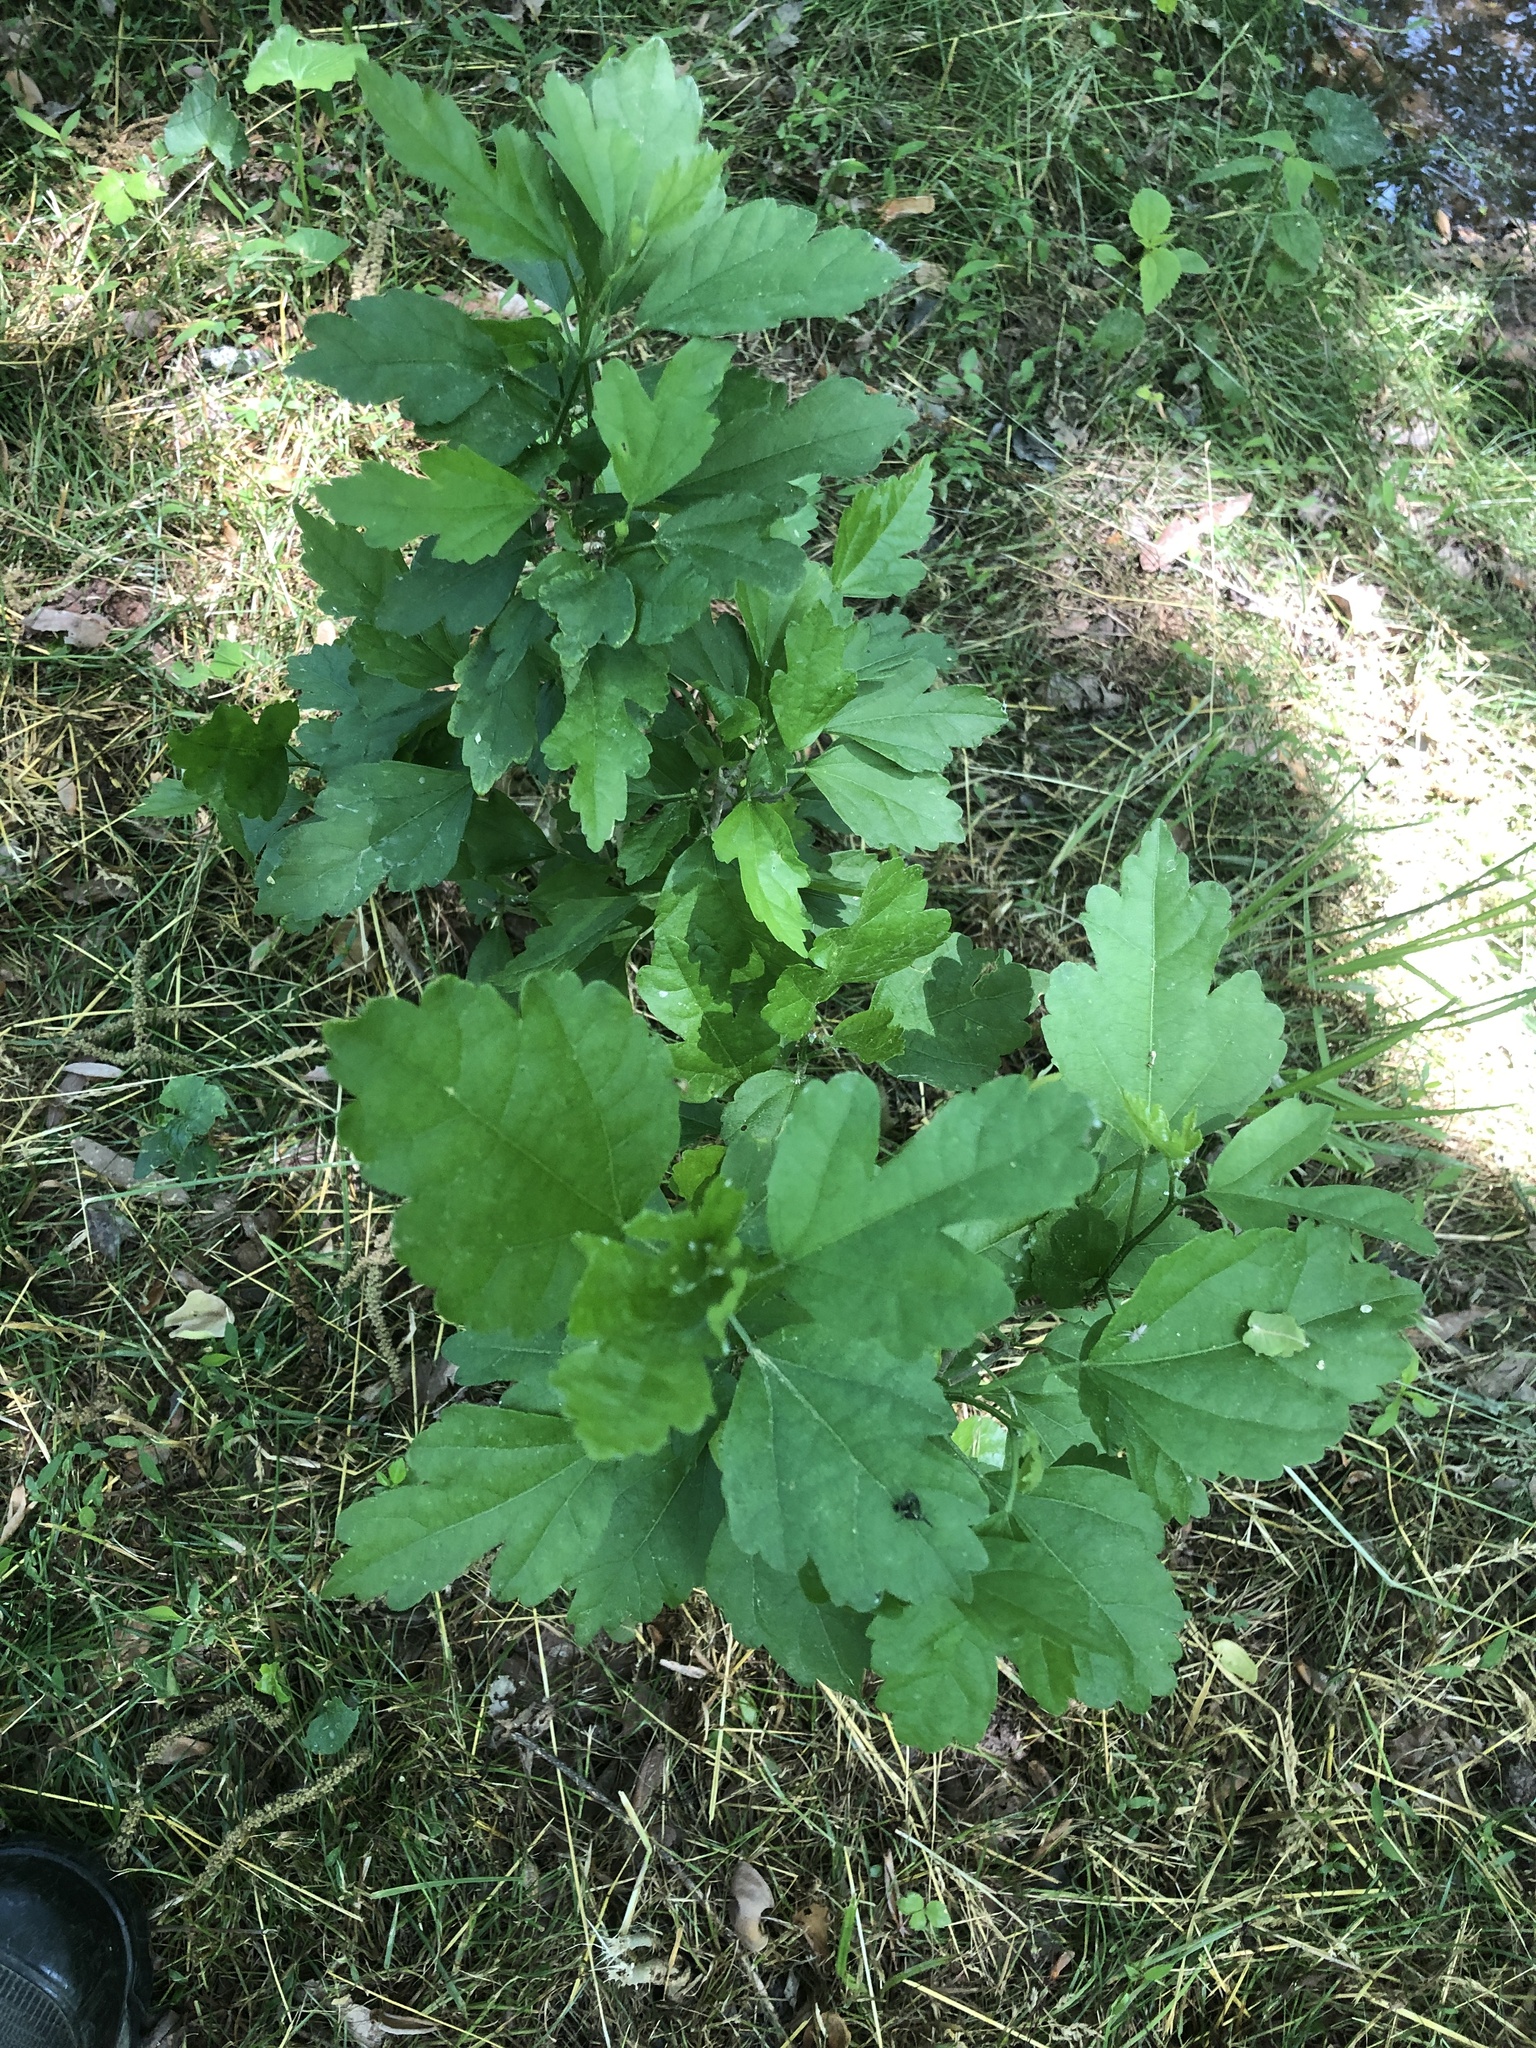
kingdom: Plantae
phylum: Tracheophyta
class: Magnoliopsida
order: Malvales
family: Malvaceae
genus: Hibiscus
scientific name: Hibiscus syriacus
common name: Syrian ketmia
